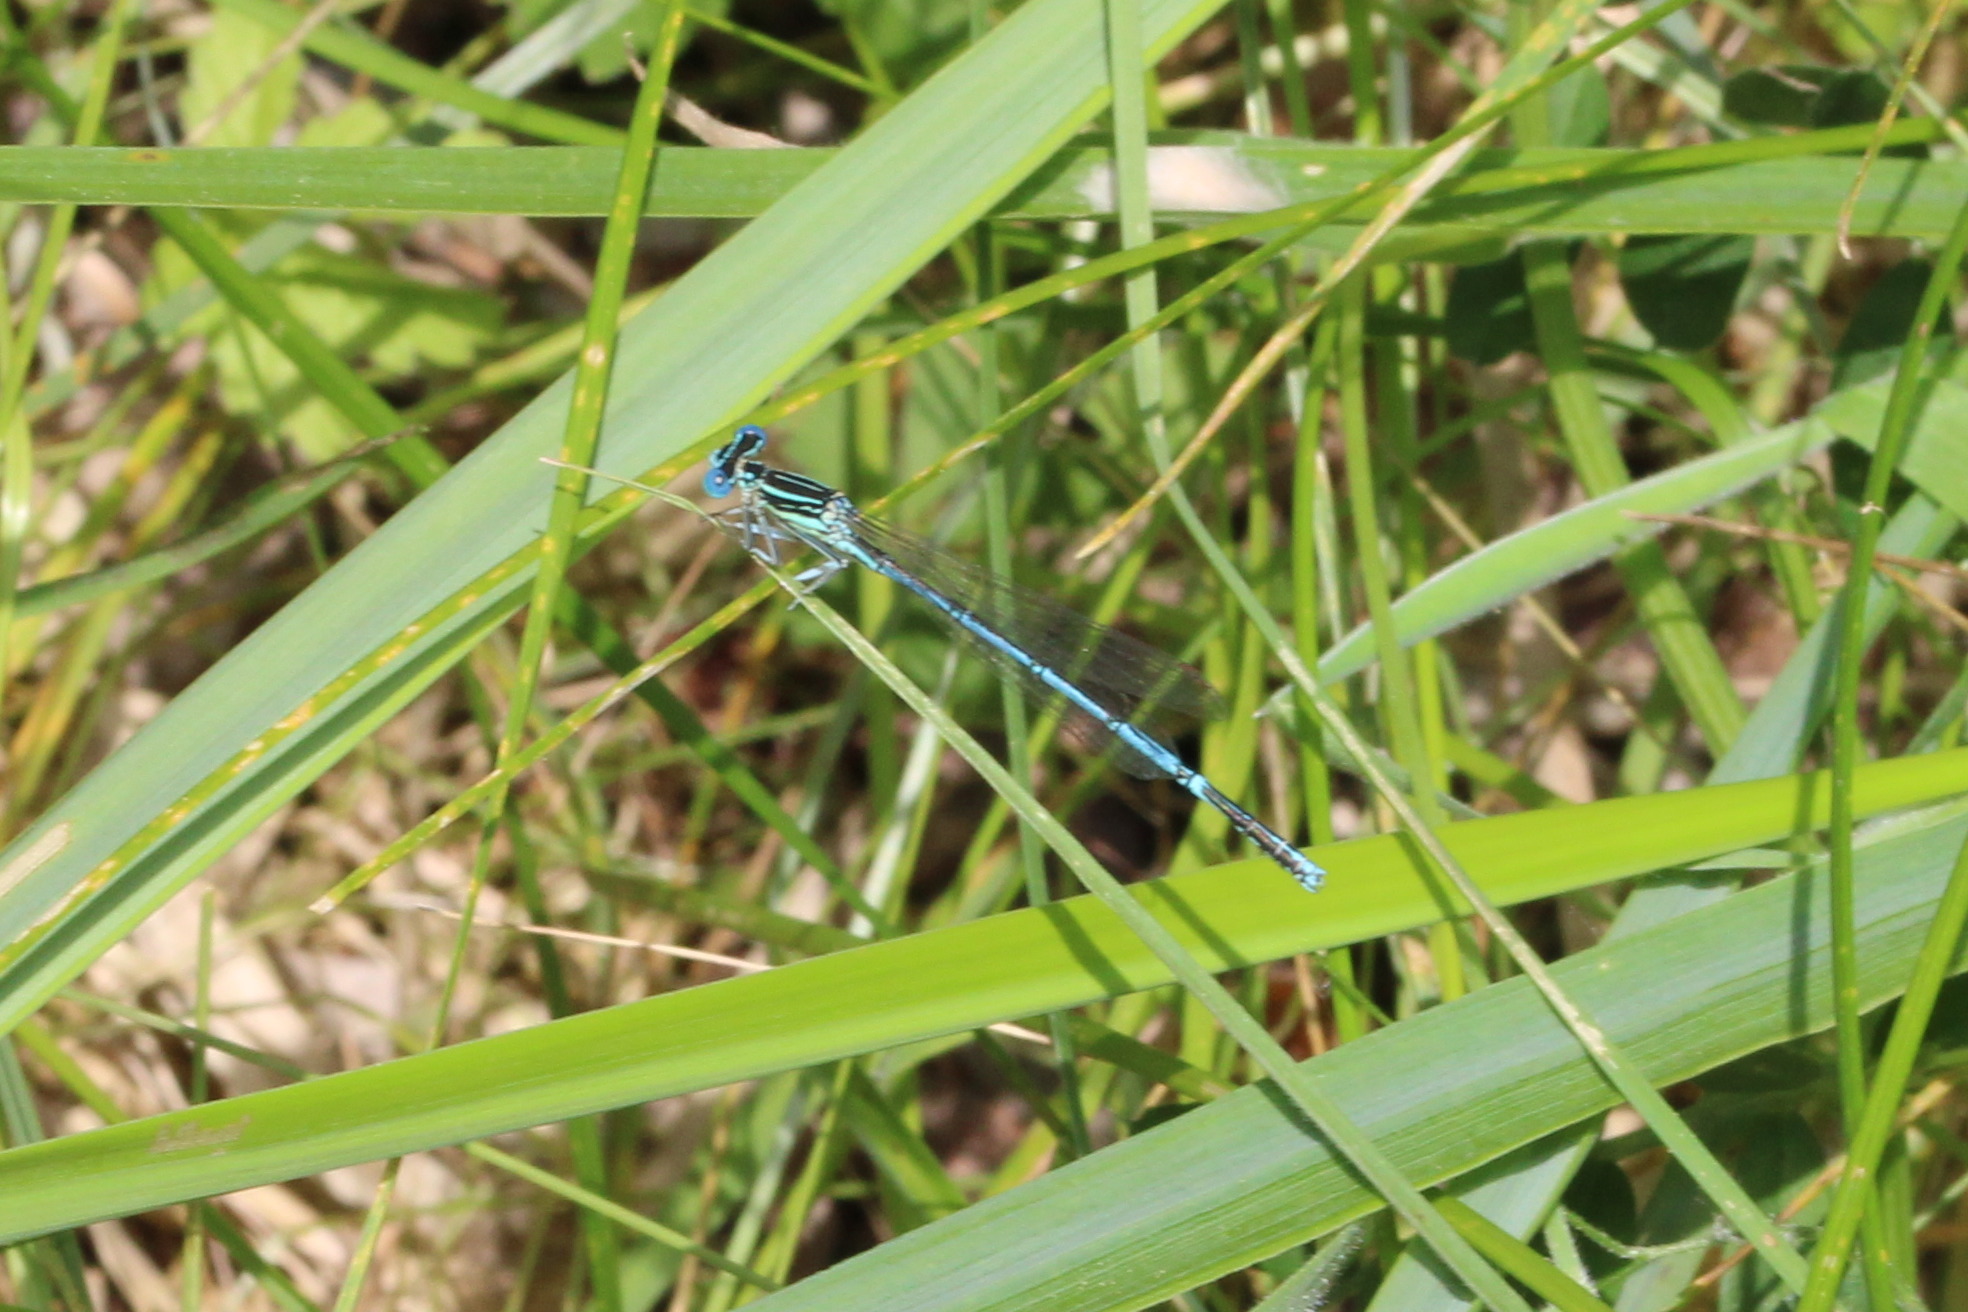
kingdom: Animalia
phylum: Arthropoda
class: Insecta
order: Odonata
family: Platycnemididae
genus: Platycnemis
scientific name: Platycnemis pennipes
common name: White-legged damselfly
